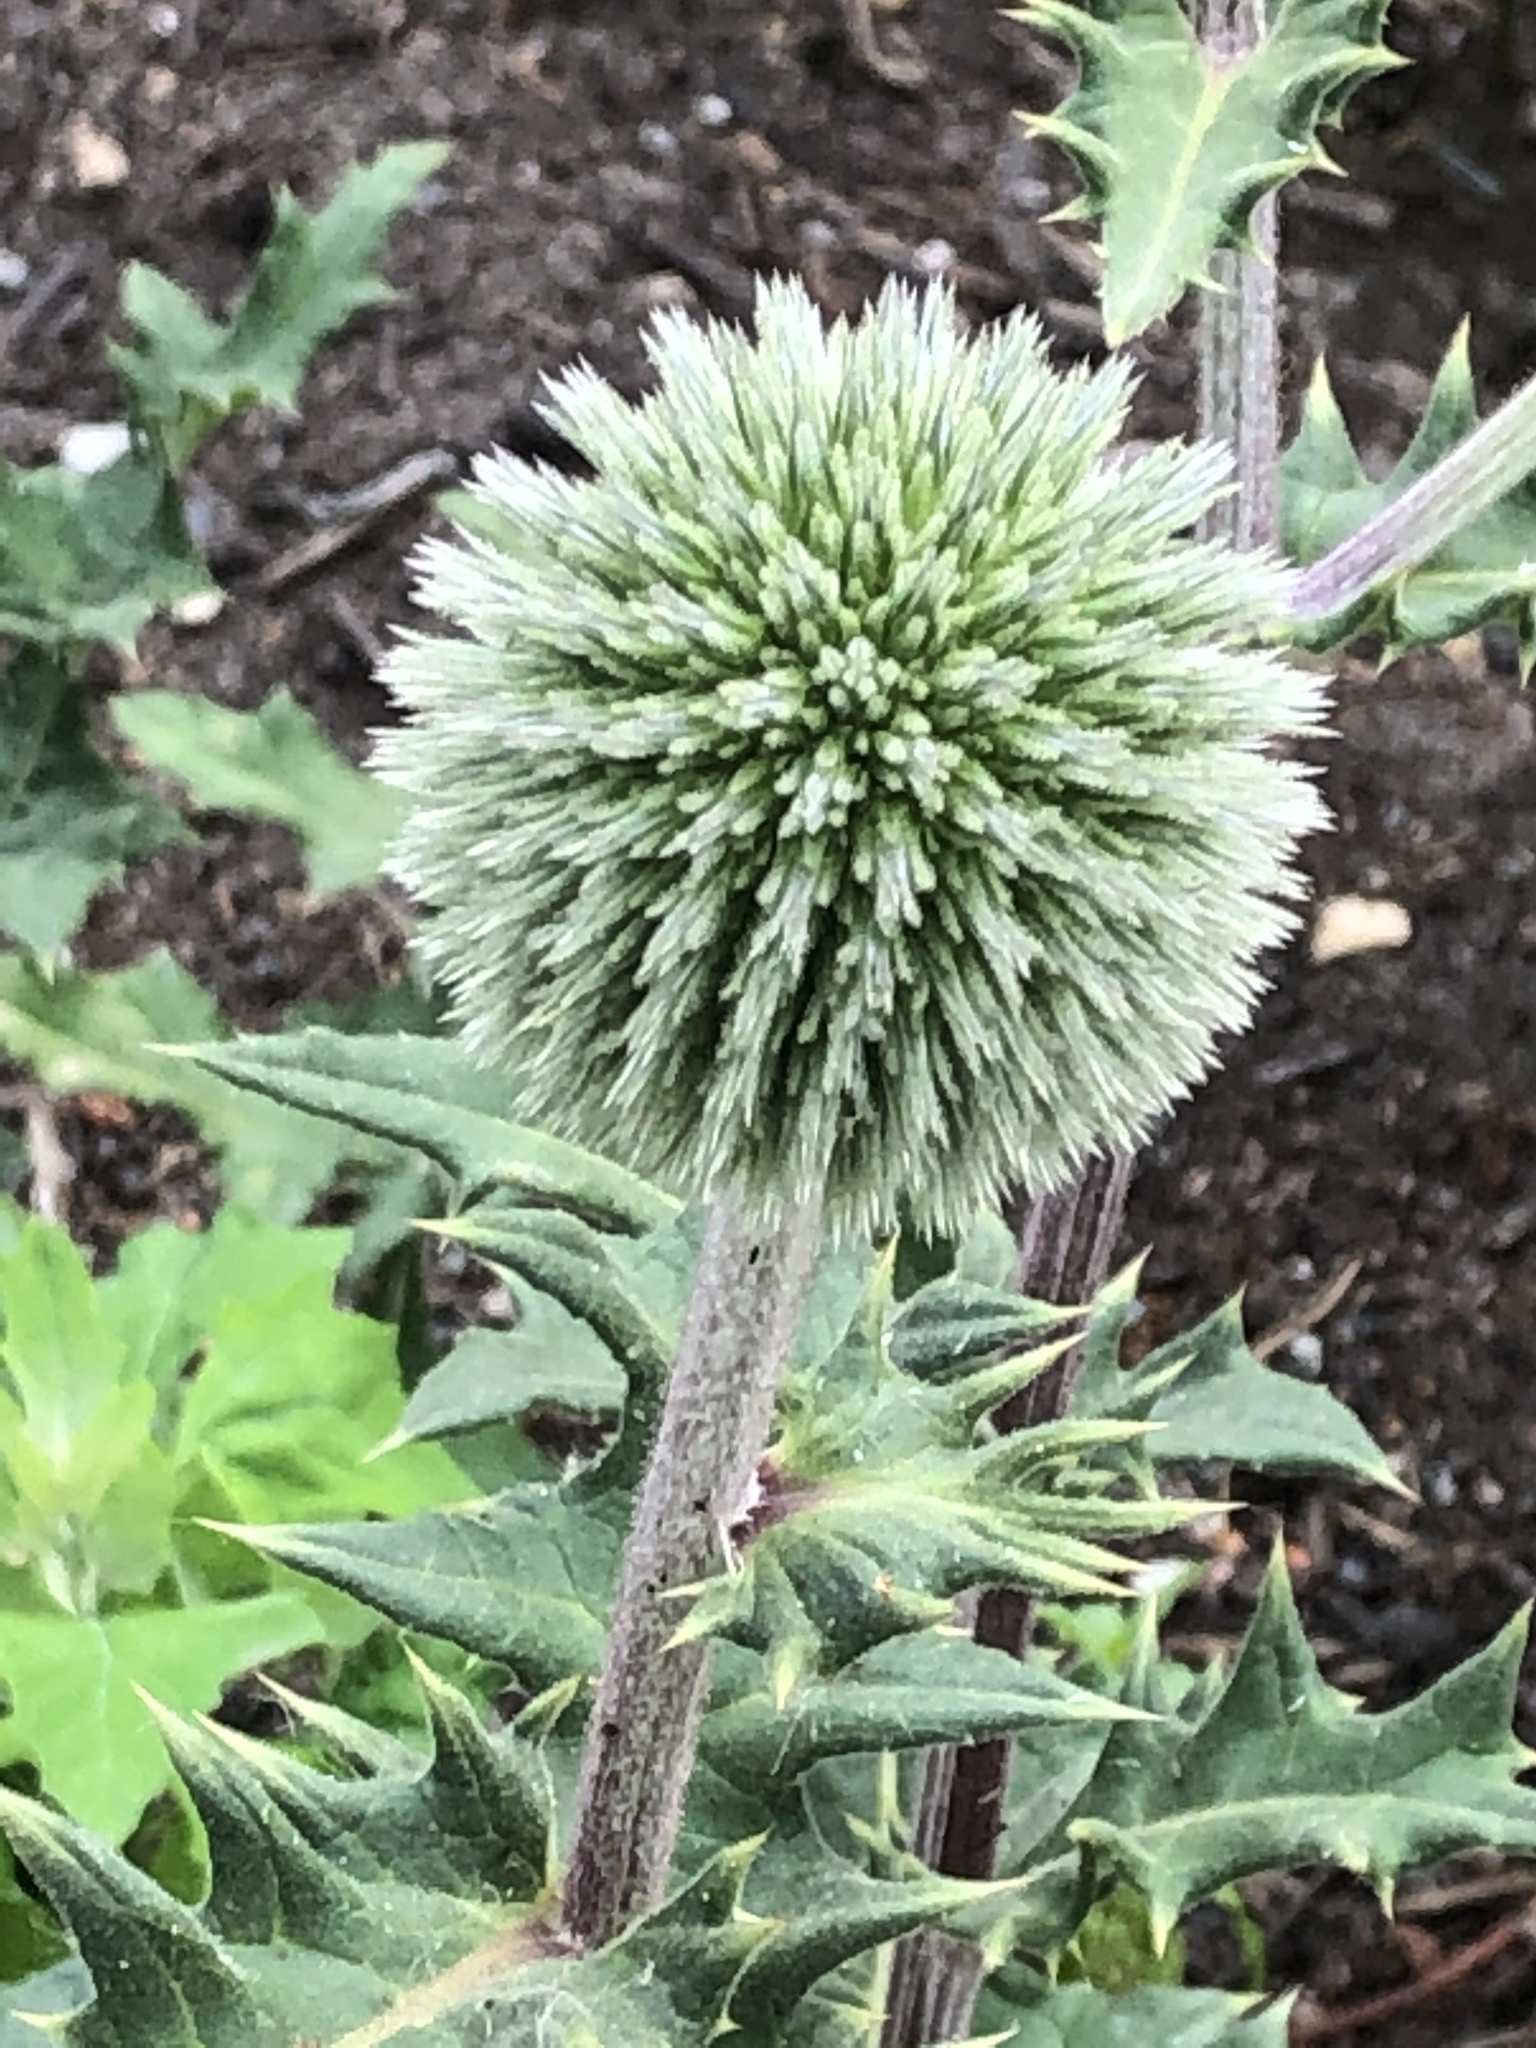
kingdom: Plantae
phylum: Tracheophyta
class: Magnoliopsida
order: Asterales
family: Asteraceae
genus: Echinops
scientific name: Echinops sphaerocephalus
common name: Glandular globe-thistle
